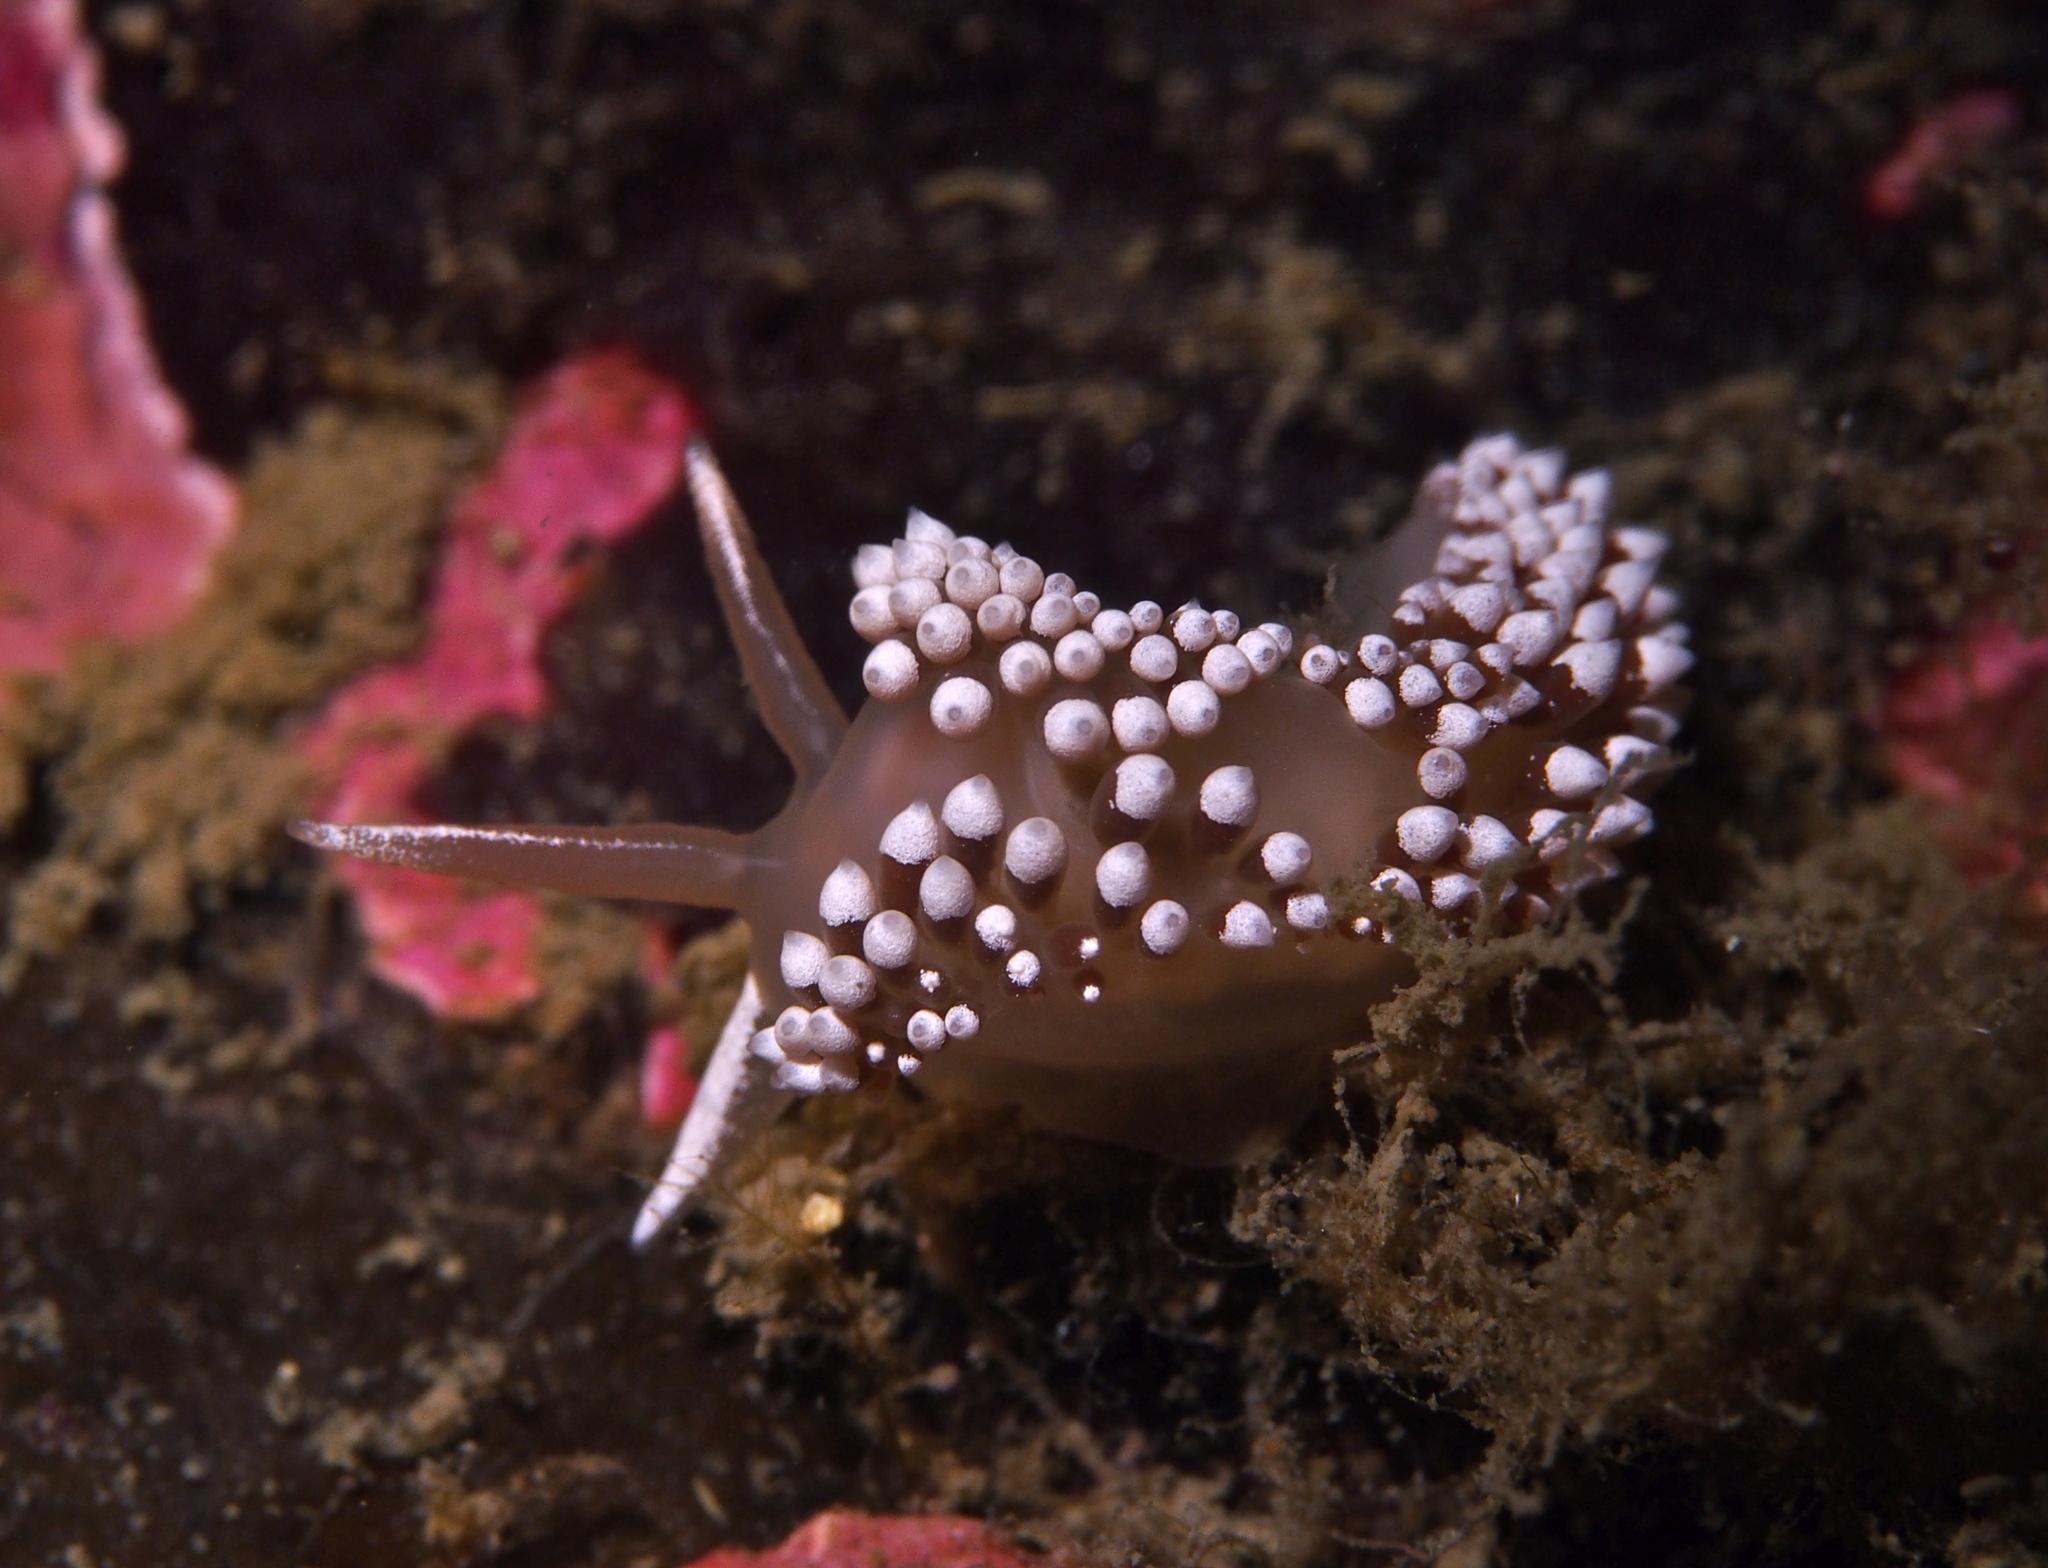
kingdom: Animalia
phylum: Mollusca
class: Gastropoda
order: Nudibranchia
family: Coryphellidae
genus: Coryphella
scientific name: Coryphella verrucosa
